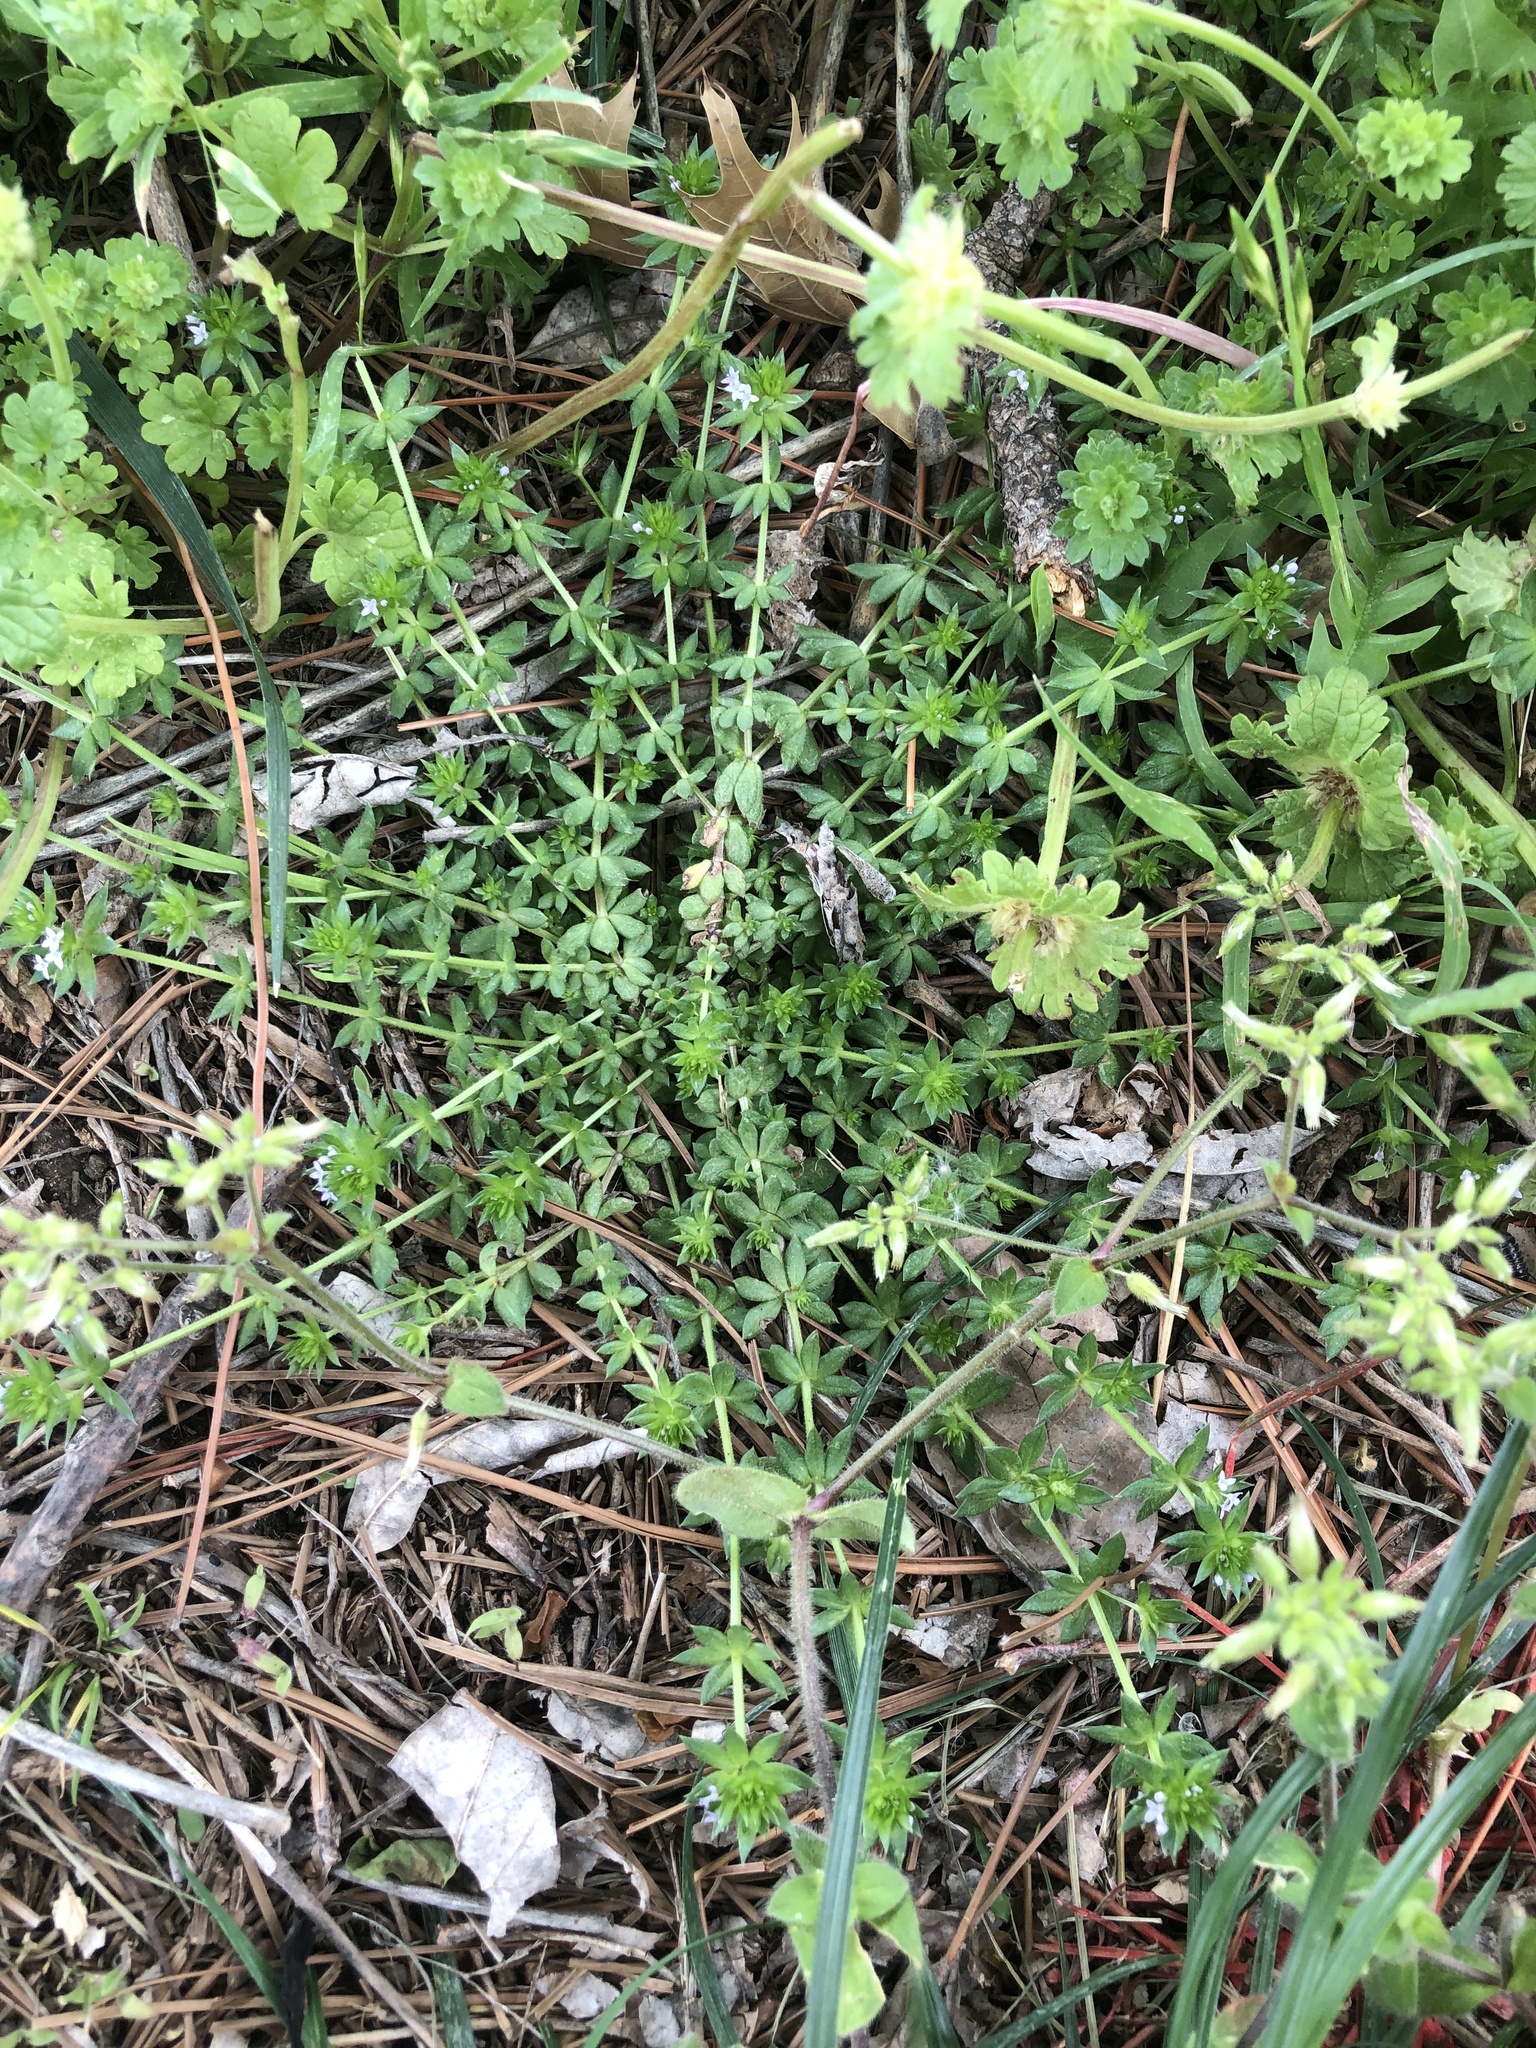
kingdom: Plantae
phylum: Tracheophyta
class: Magnoliopsida
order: Gentianales
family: Rubiaceae
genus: Sherardia
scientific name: Sherardia arvensis
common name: Field madder
